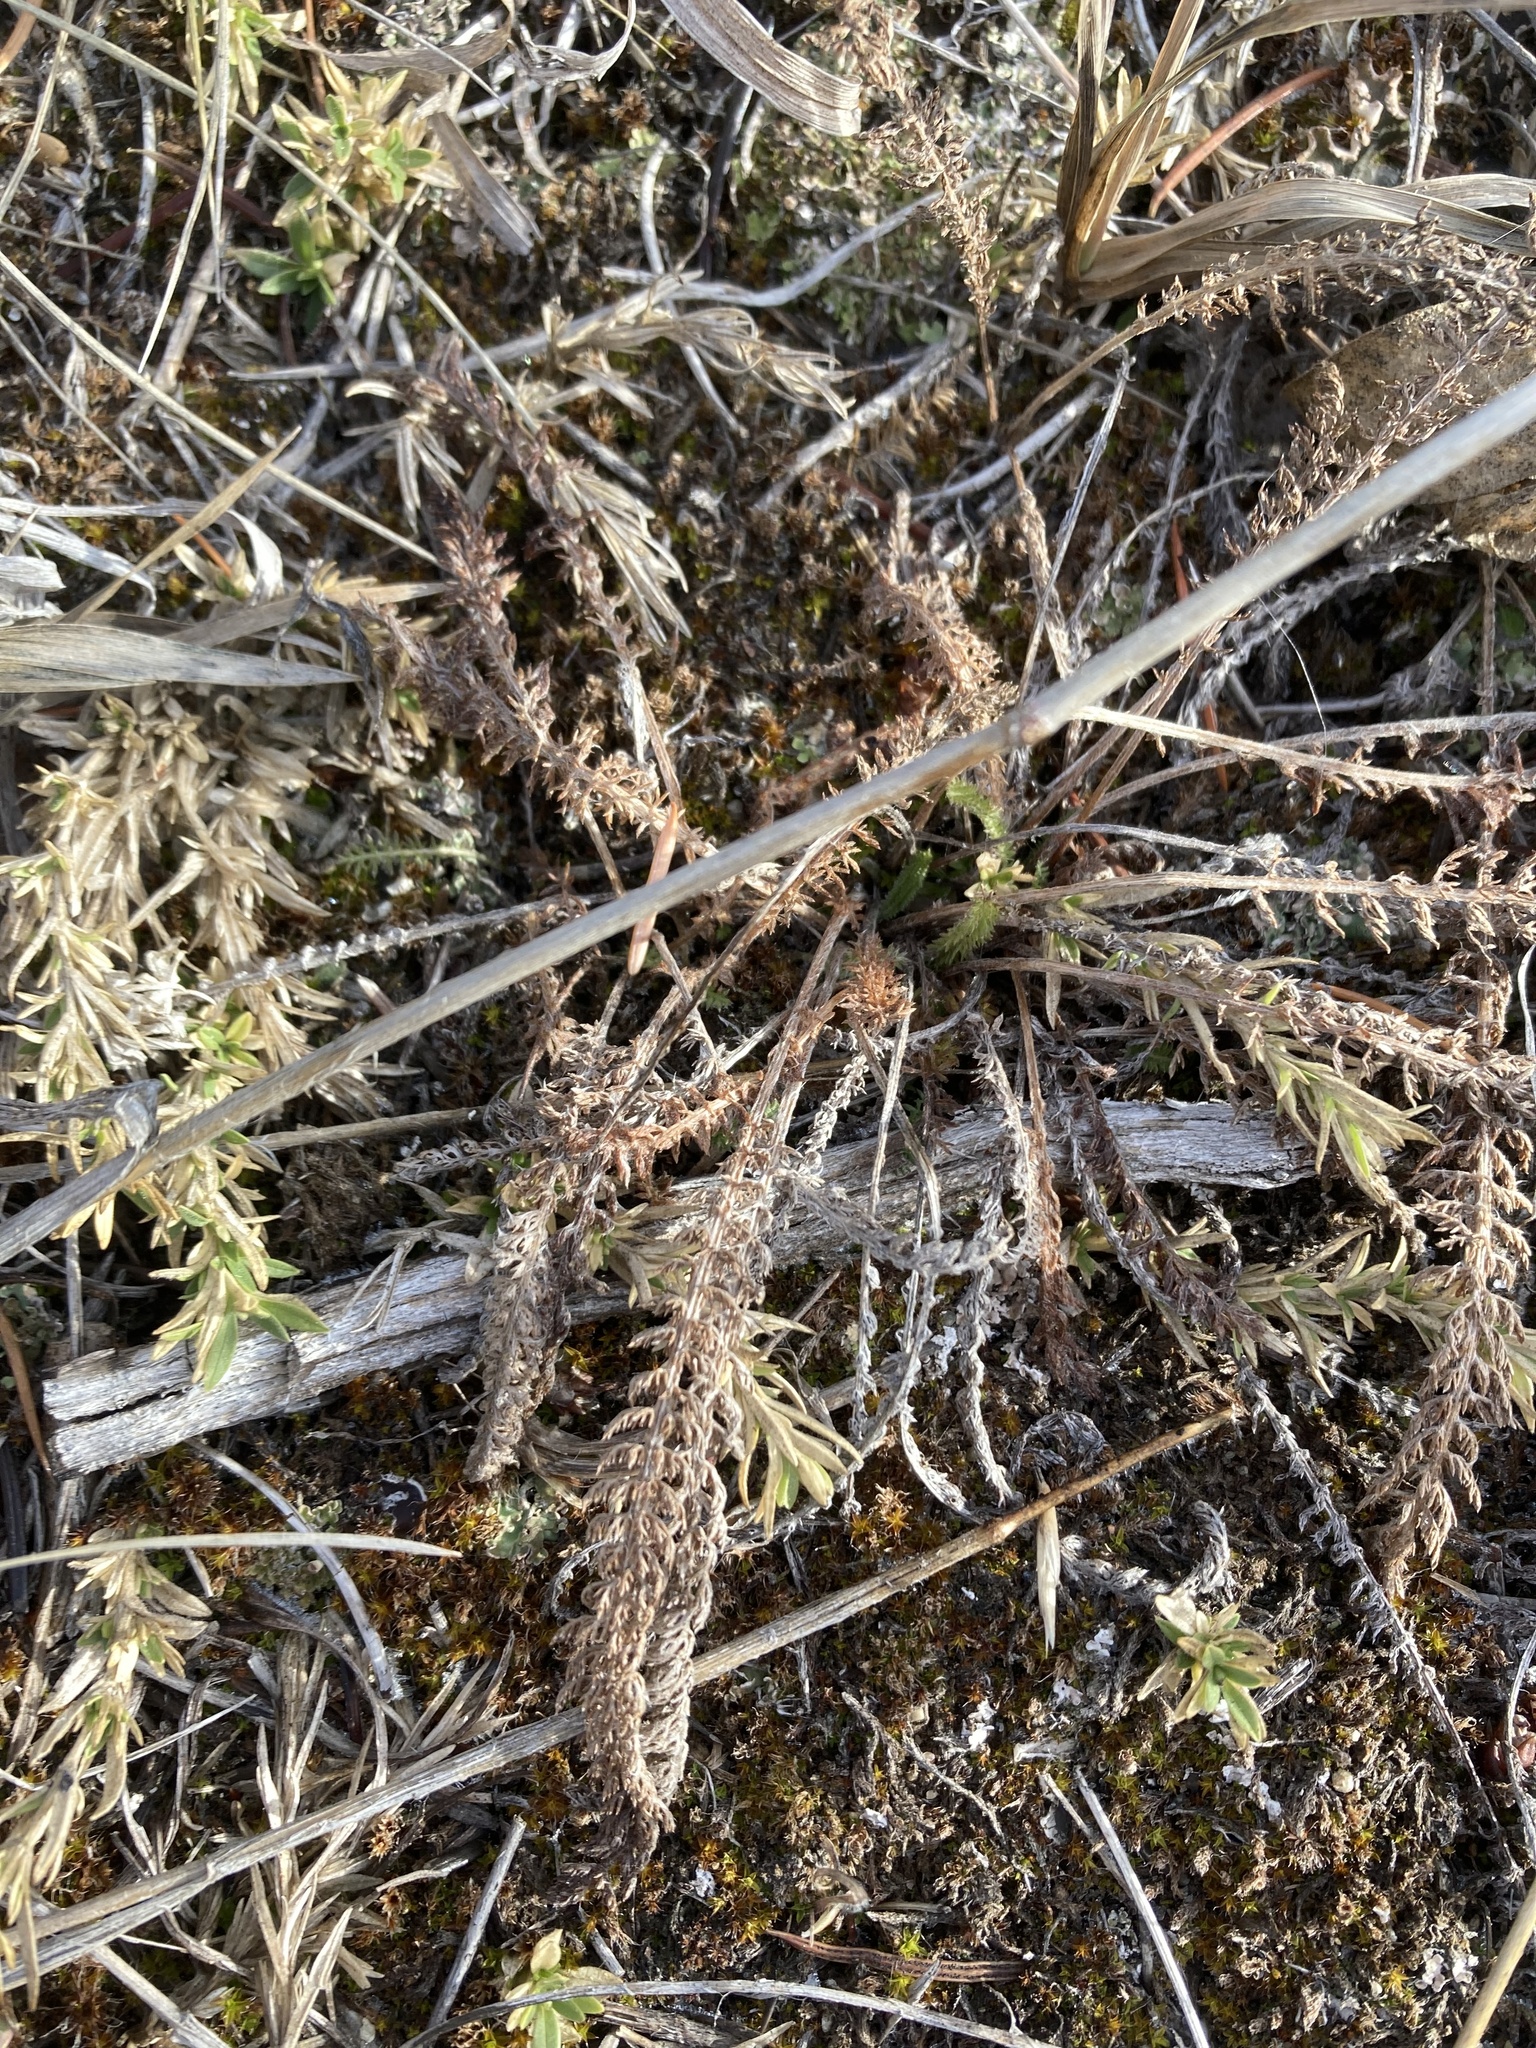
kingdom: Plantae
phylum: Tracheophyta
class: Magnoliopsida
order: Asterales
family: Asteraceae
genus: Achillea
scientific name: Achillea millefolium
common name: Yarrow
